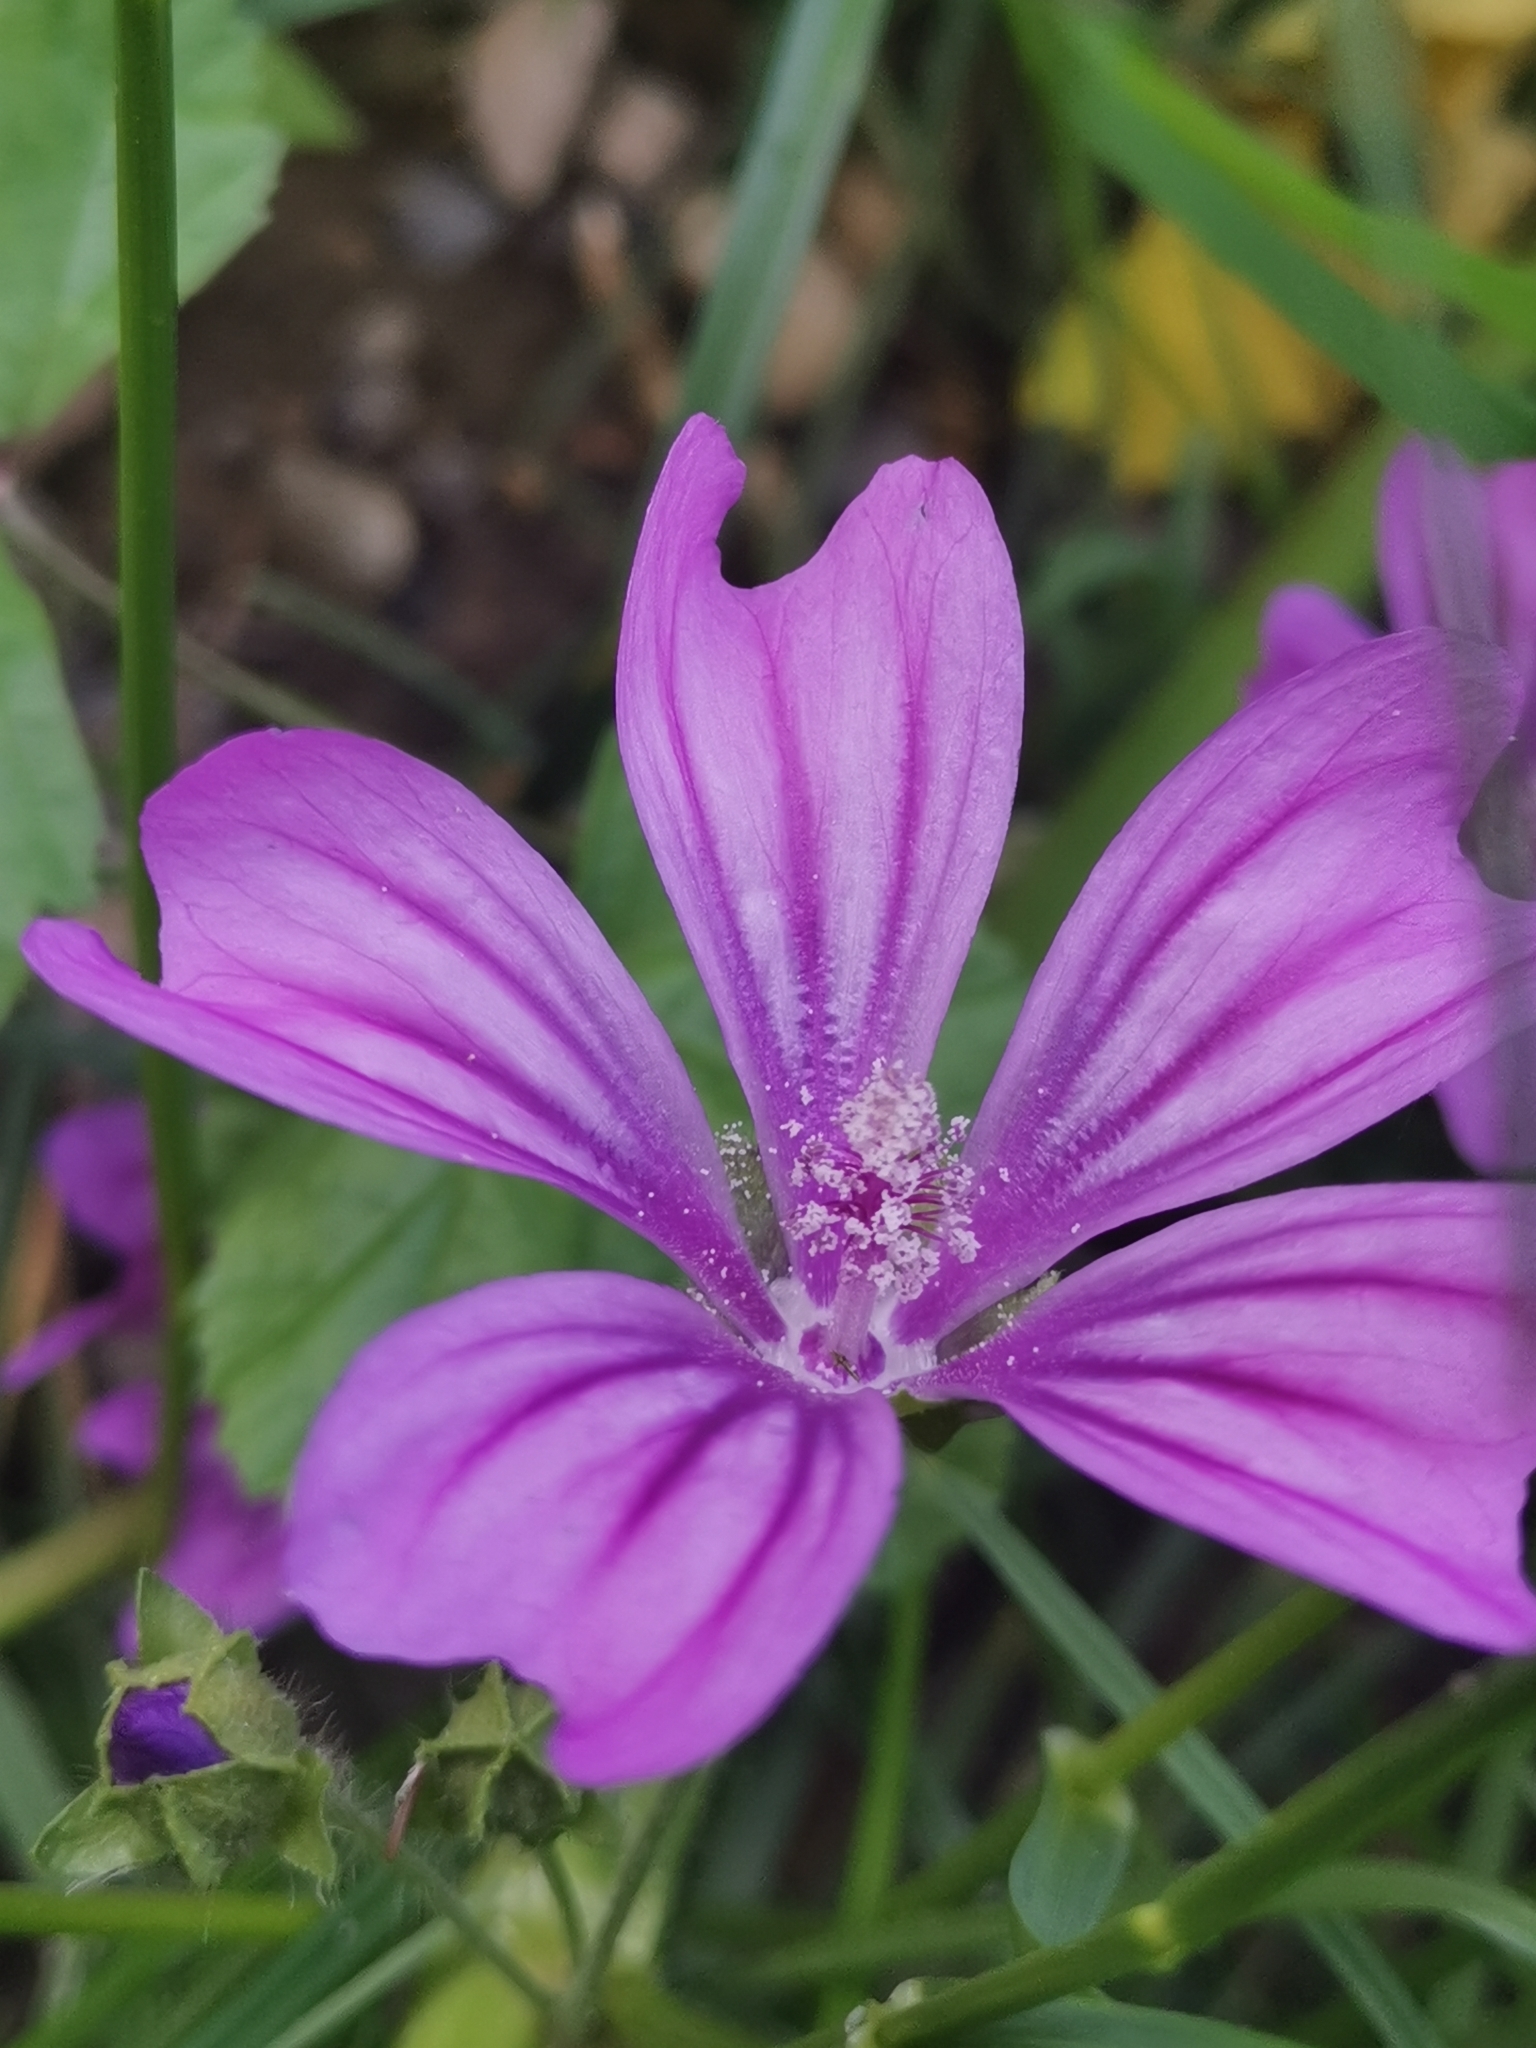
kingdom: Plantae
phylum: Tracheophyta
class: Magnoliopsida
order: Malvales
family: Malvaceae
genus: Malva
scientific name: Malva sylvestris
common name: Common mallow
